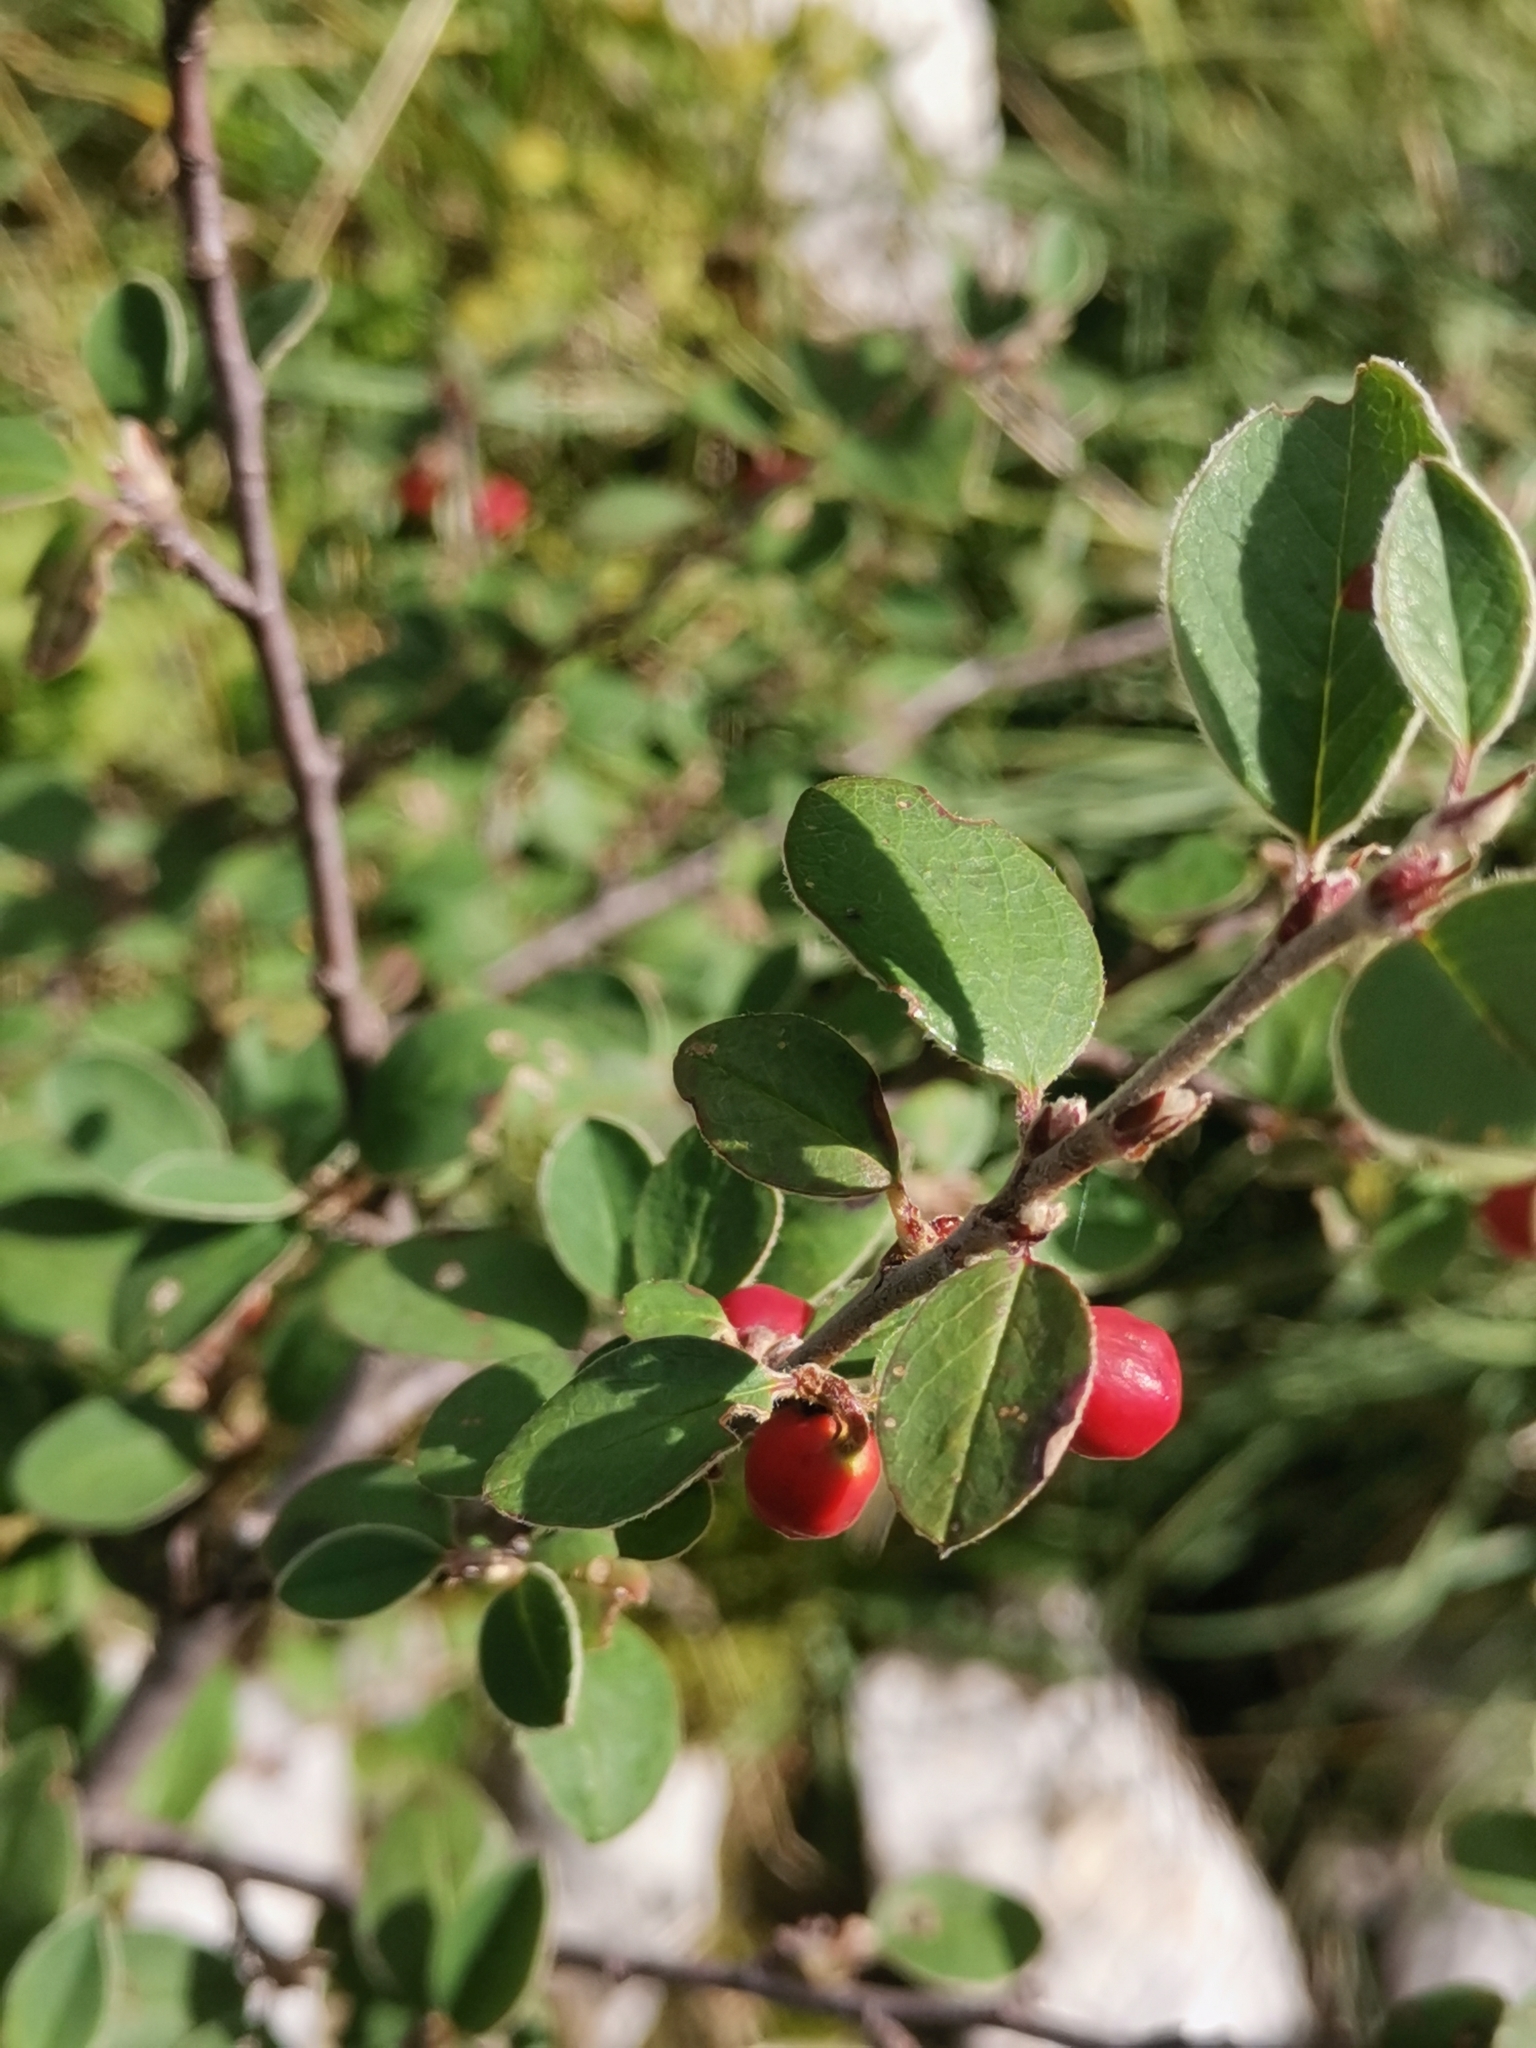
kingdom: Plantae
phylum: Tracheophyta
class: Magnoliopsida
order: Rosales
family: Rosaceae
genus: Cotoneaster
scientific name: Cotoneaster integerrimus
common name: Wild cotoneaster
